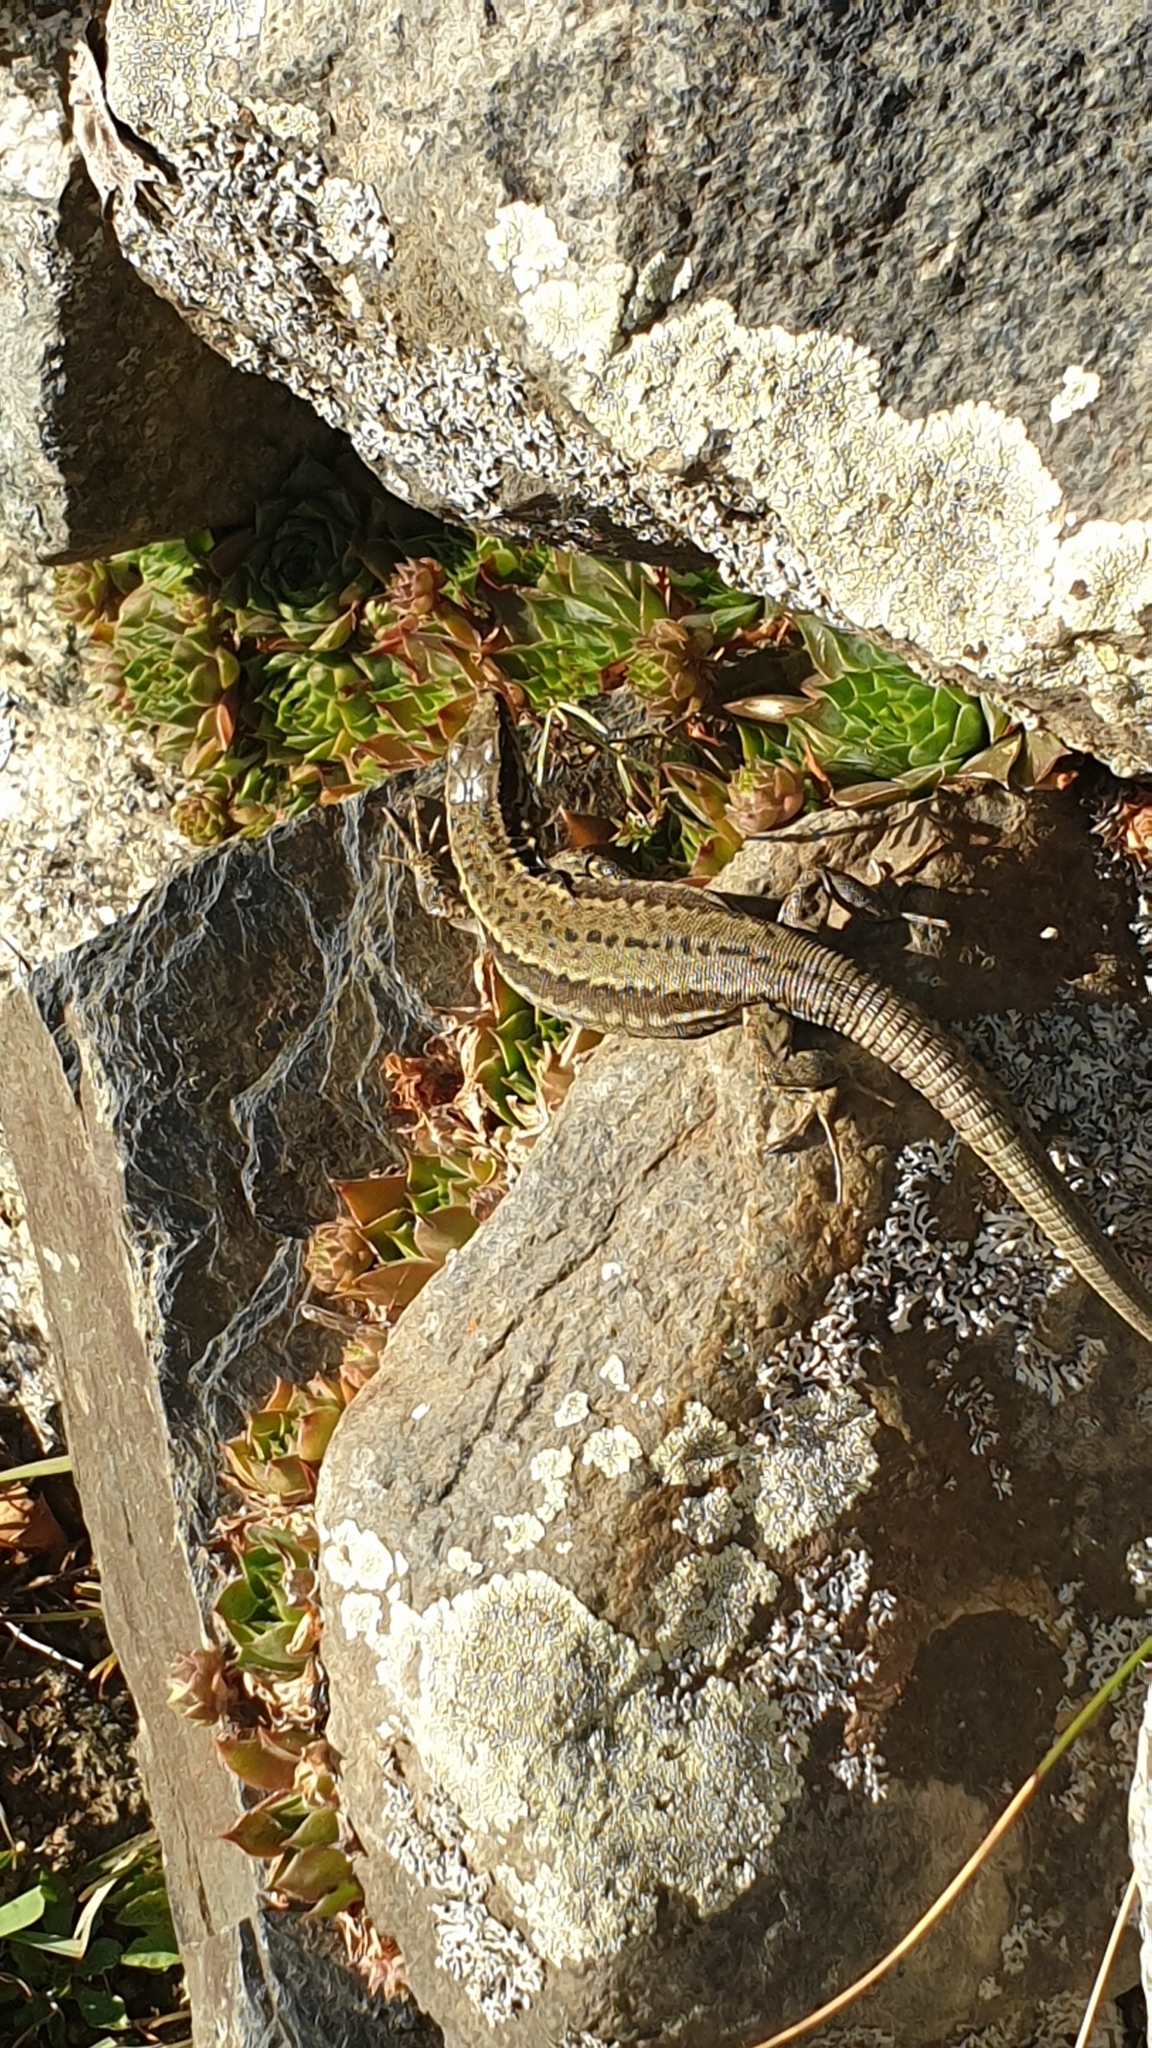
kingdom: Animalia
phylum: Chordata
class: Squamata
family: Lacertidae
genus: Podarcis
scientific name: Podarcis muralis
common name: Common wall lizard
